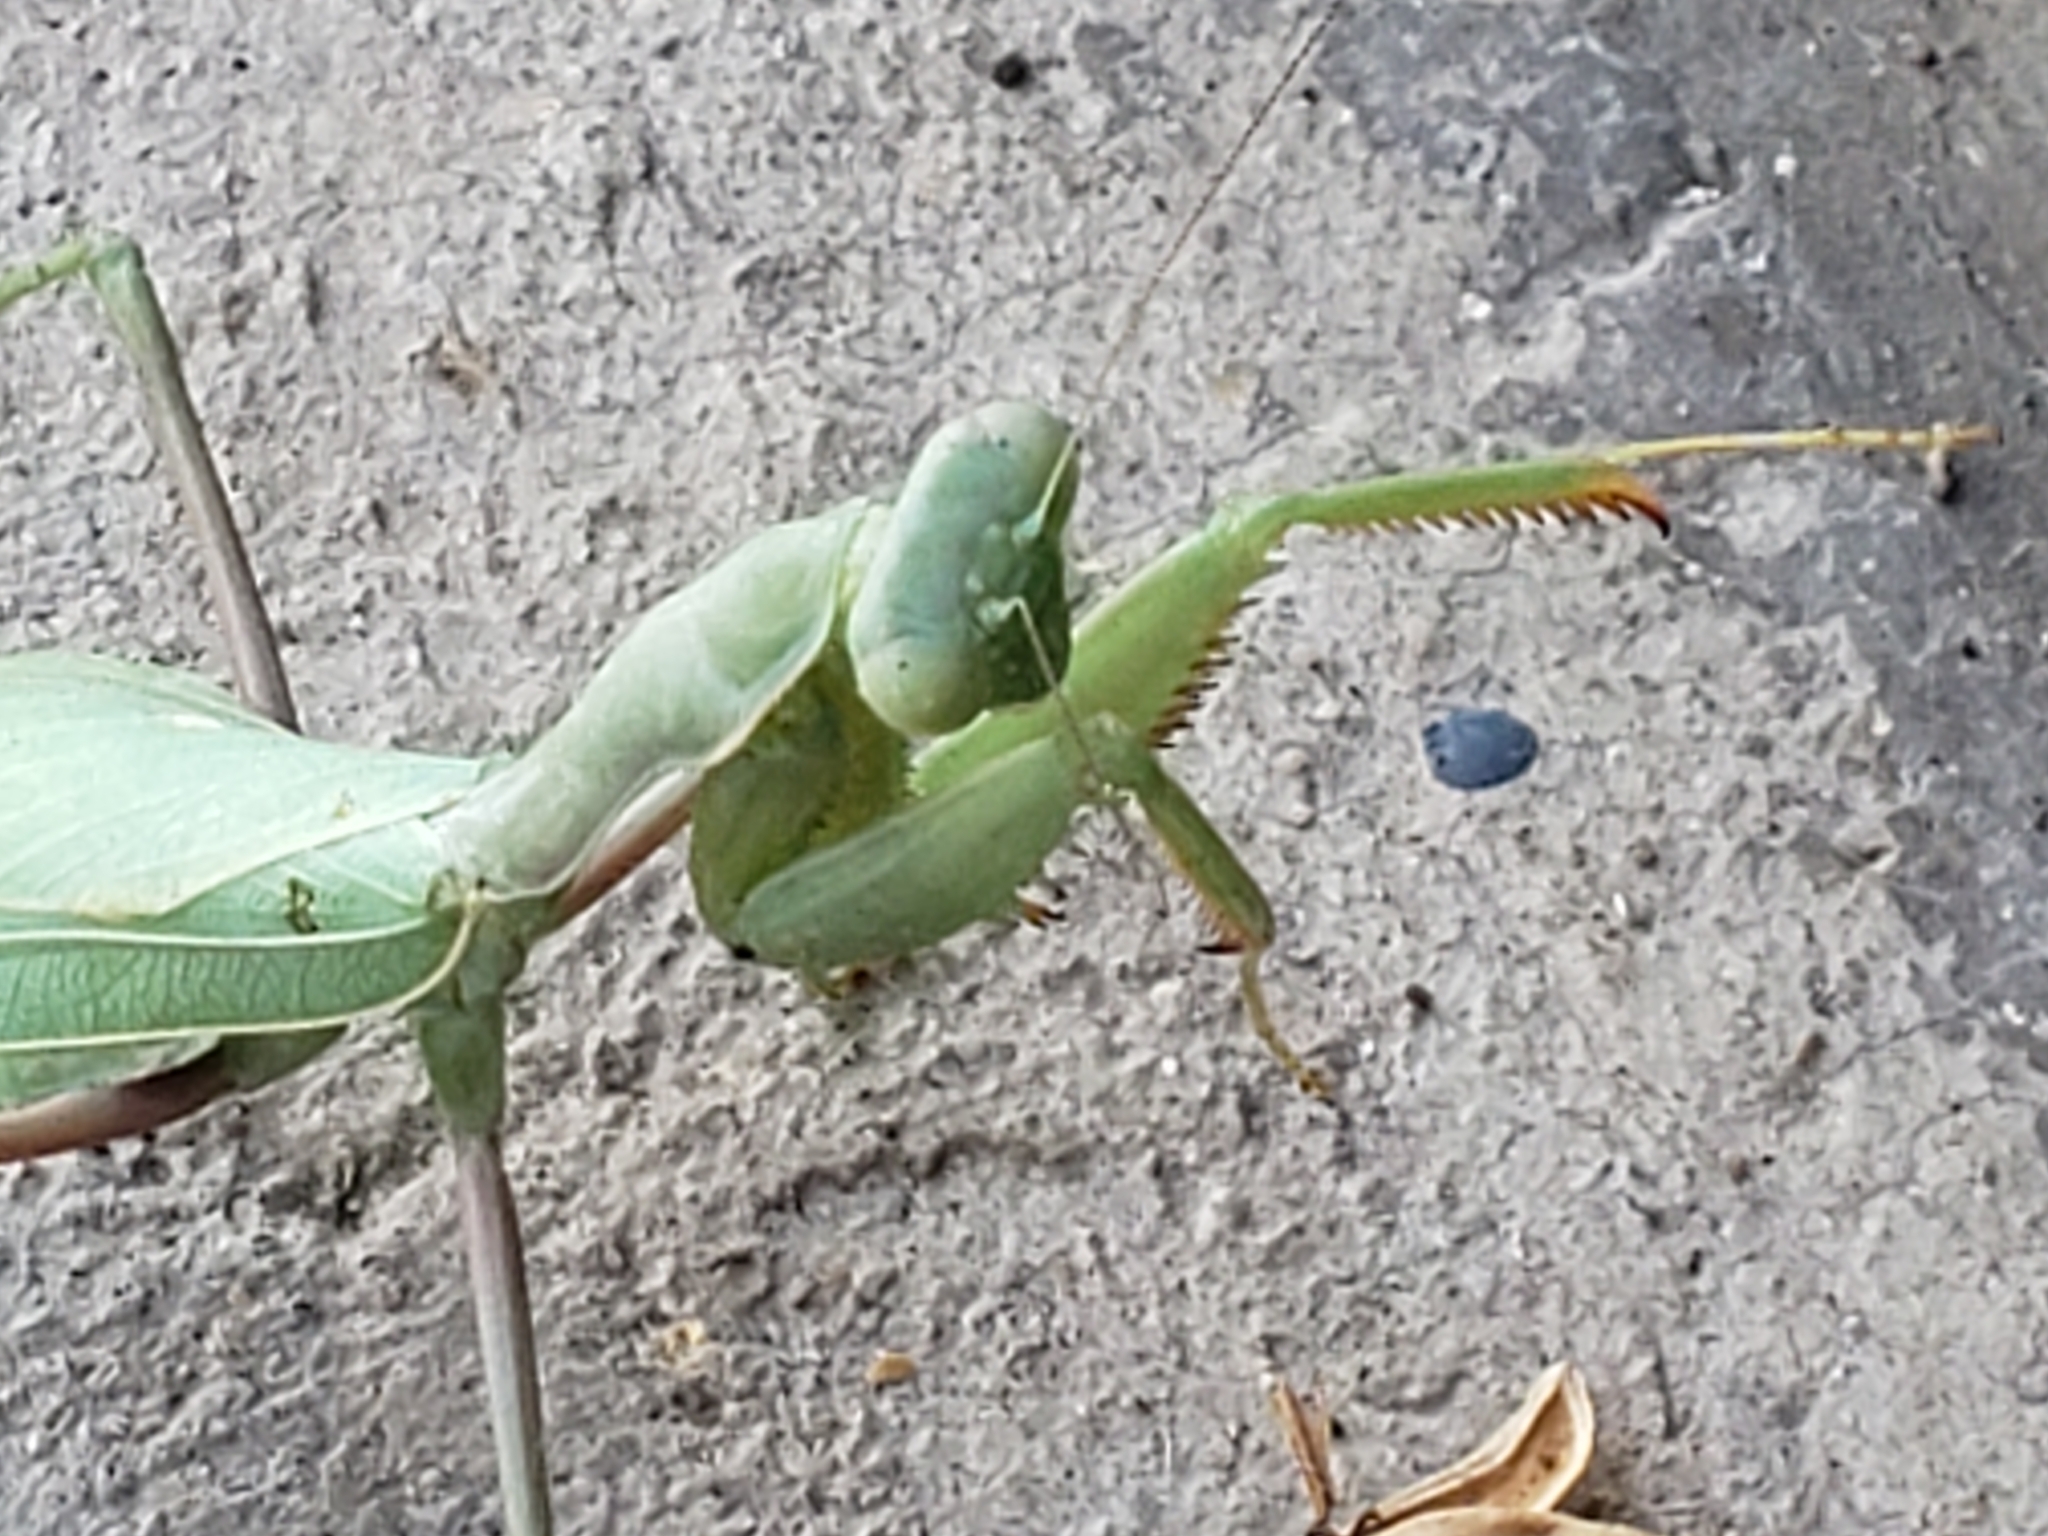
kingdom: Animalia
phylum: Arthropoda
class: Insecta
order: Mantodea
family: Mantidae
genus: Stagmomantis
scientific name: Stagmomantis limbata
